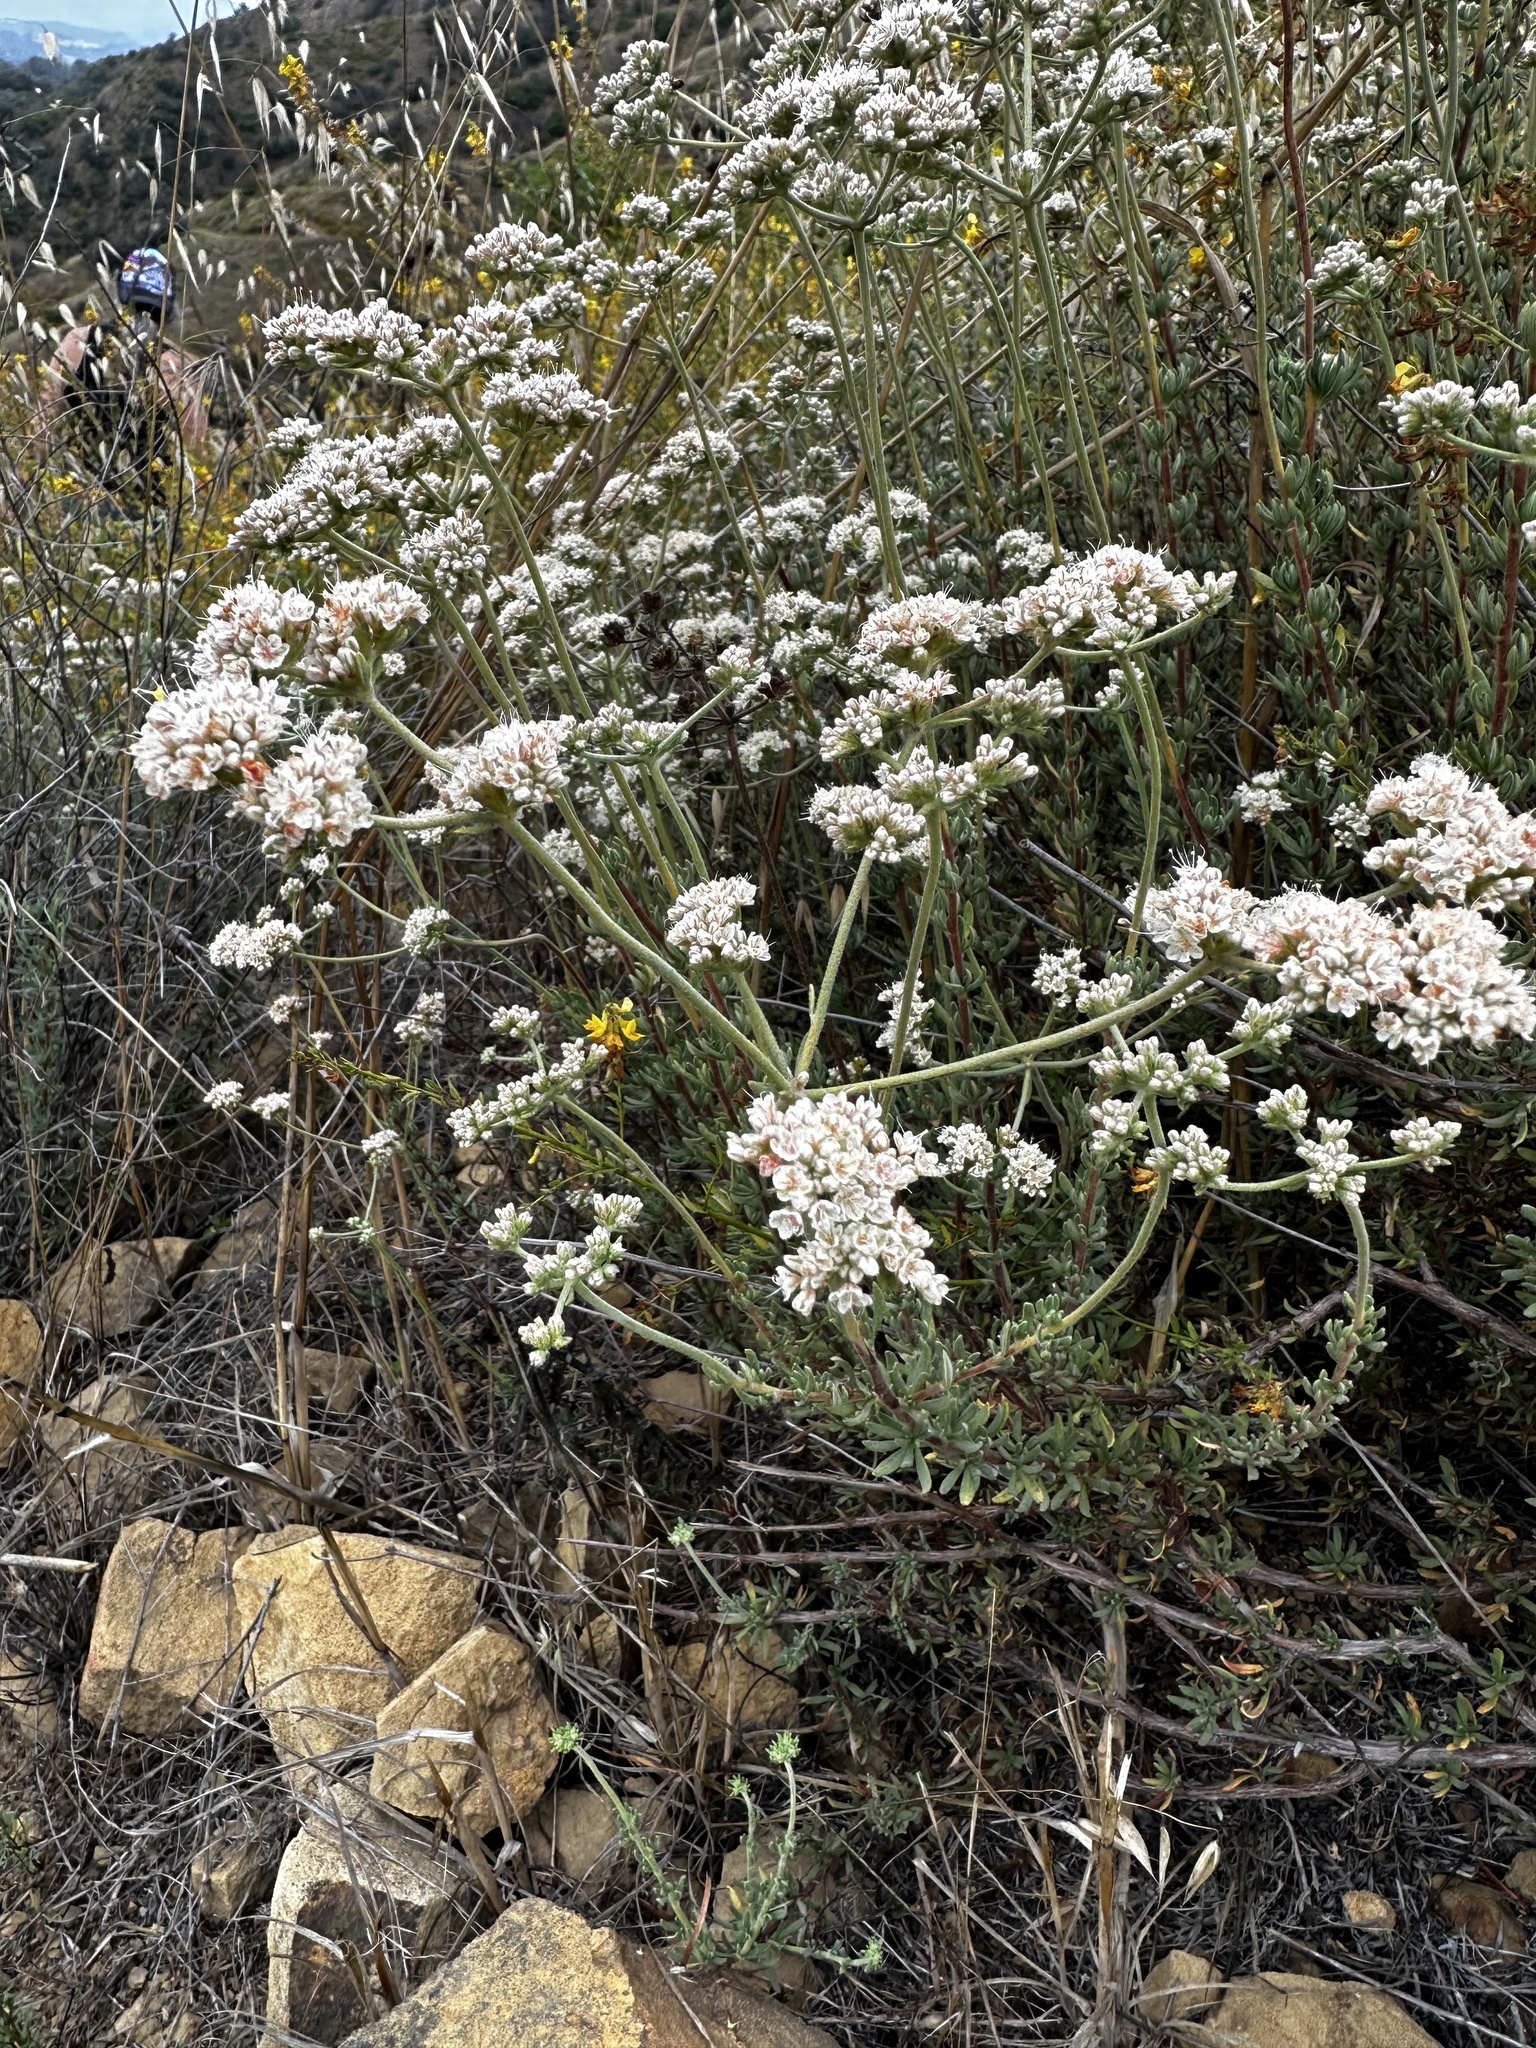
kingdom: Plantae
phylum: Tracheophyta
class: Magnoliopsida
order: Caryophyllales
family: Polygonaceae
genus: Eriogonum
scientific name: Eriogonum fasciculatum
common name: California wild buckwheat
